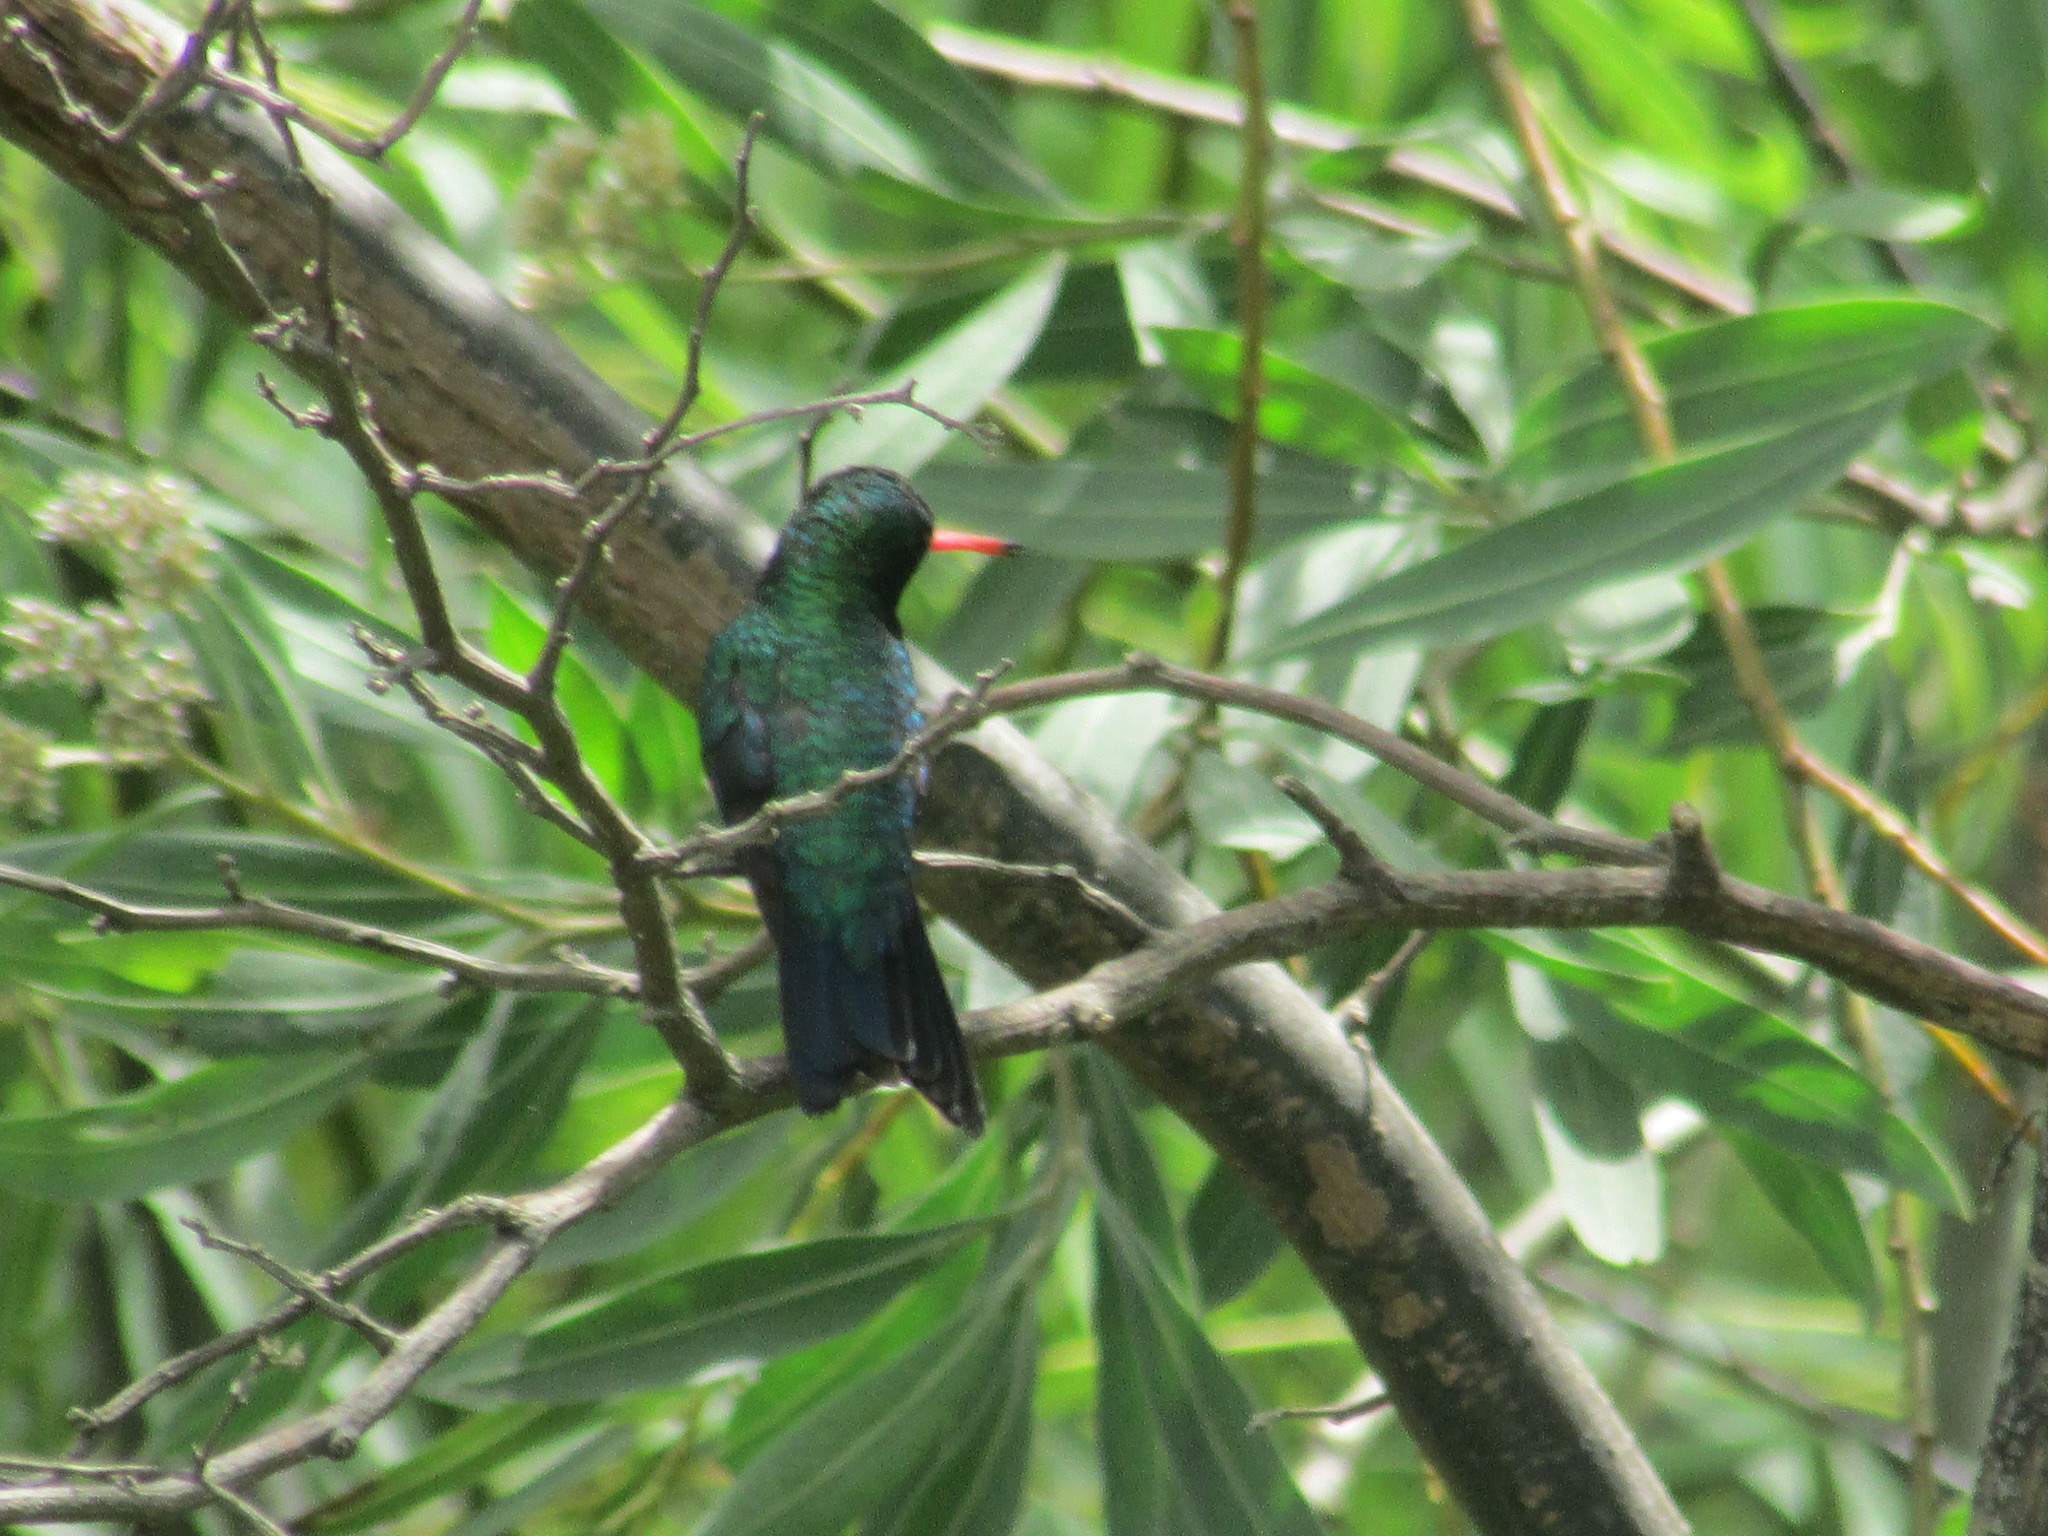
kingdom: Animalia
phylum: Chordata
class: Aves
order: Apodiformes
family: Trochilidae
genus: Chlorostilbon
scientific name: Chlorostilbon lucidus
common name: Glittering-bellied emerald
